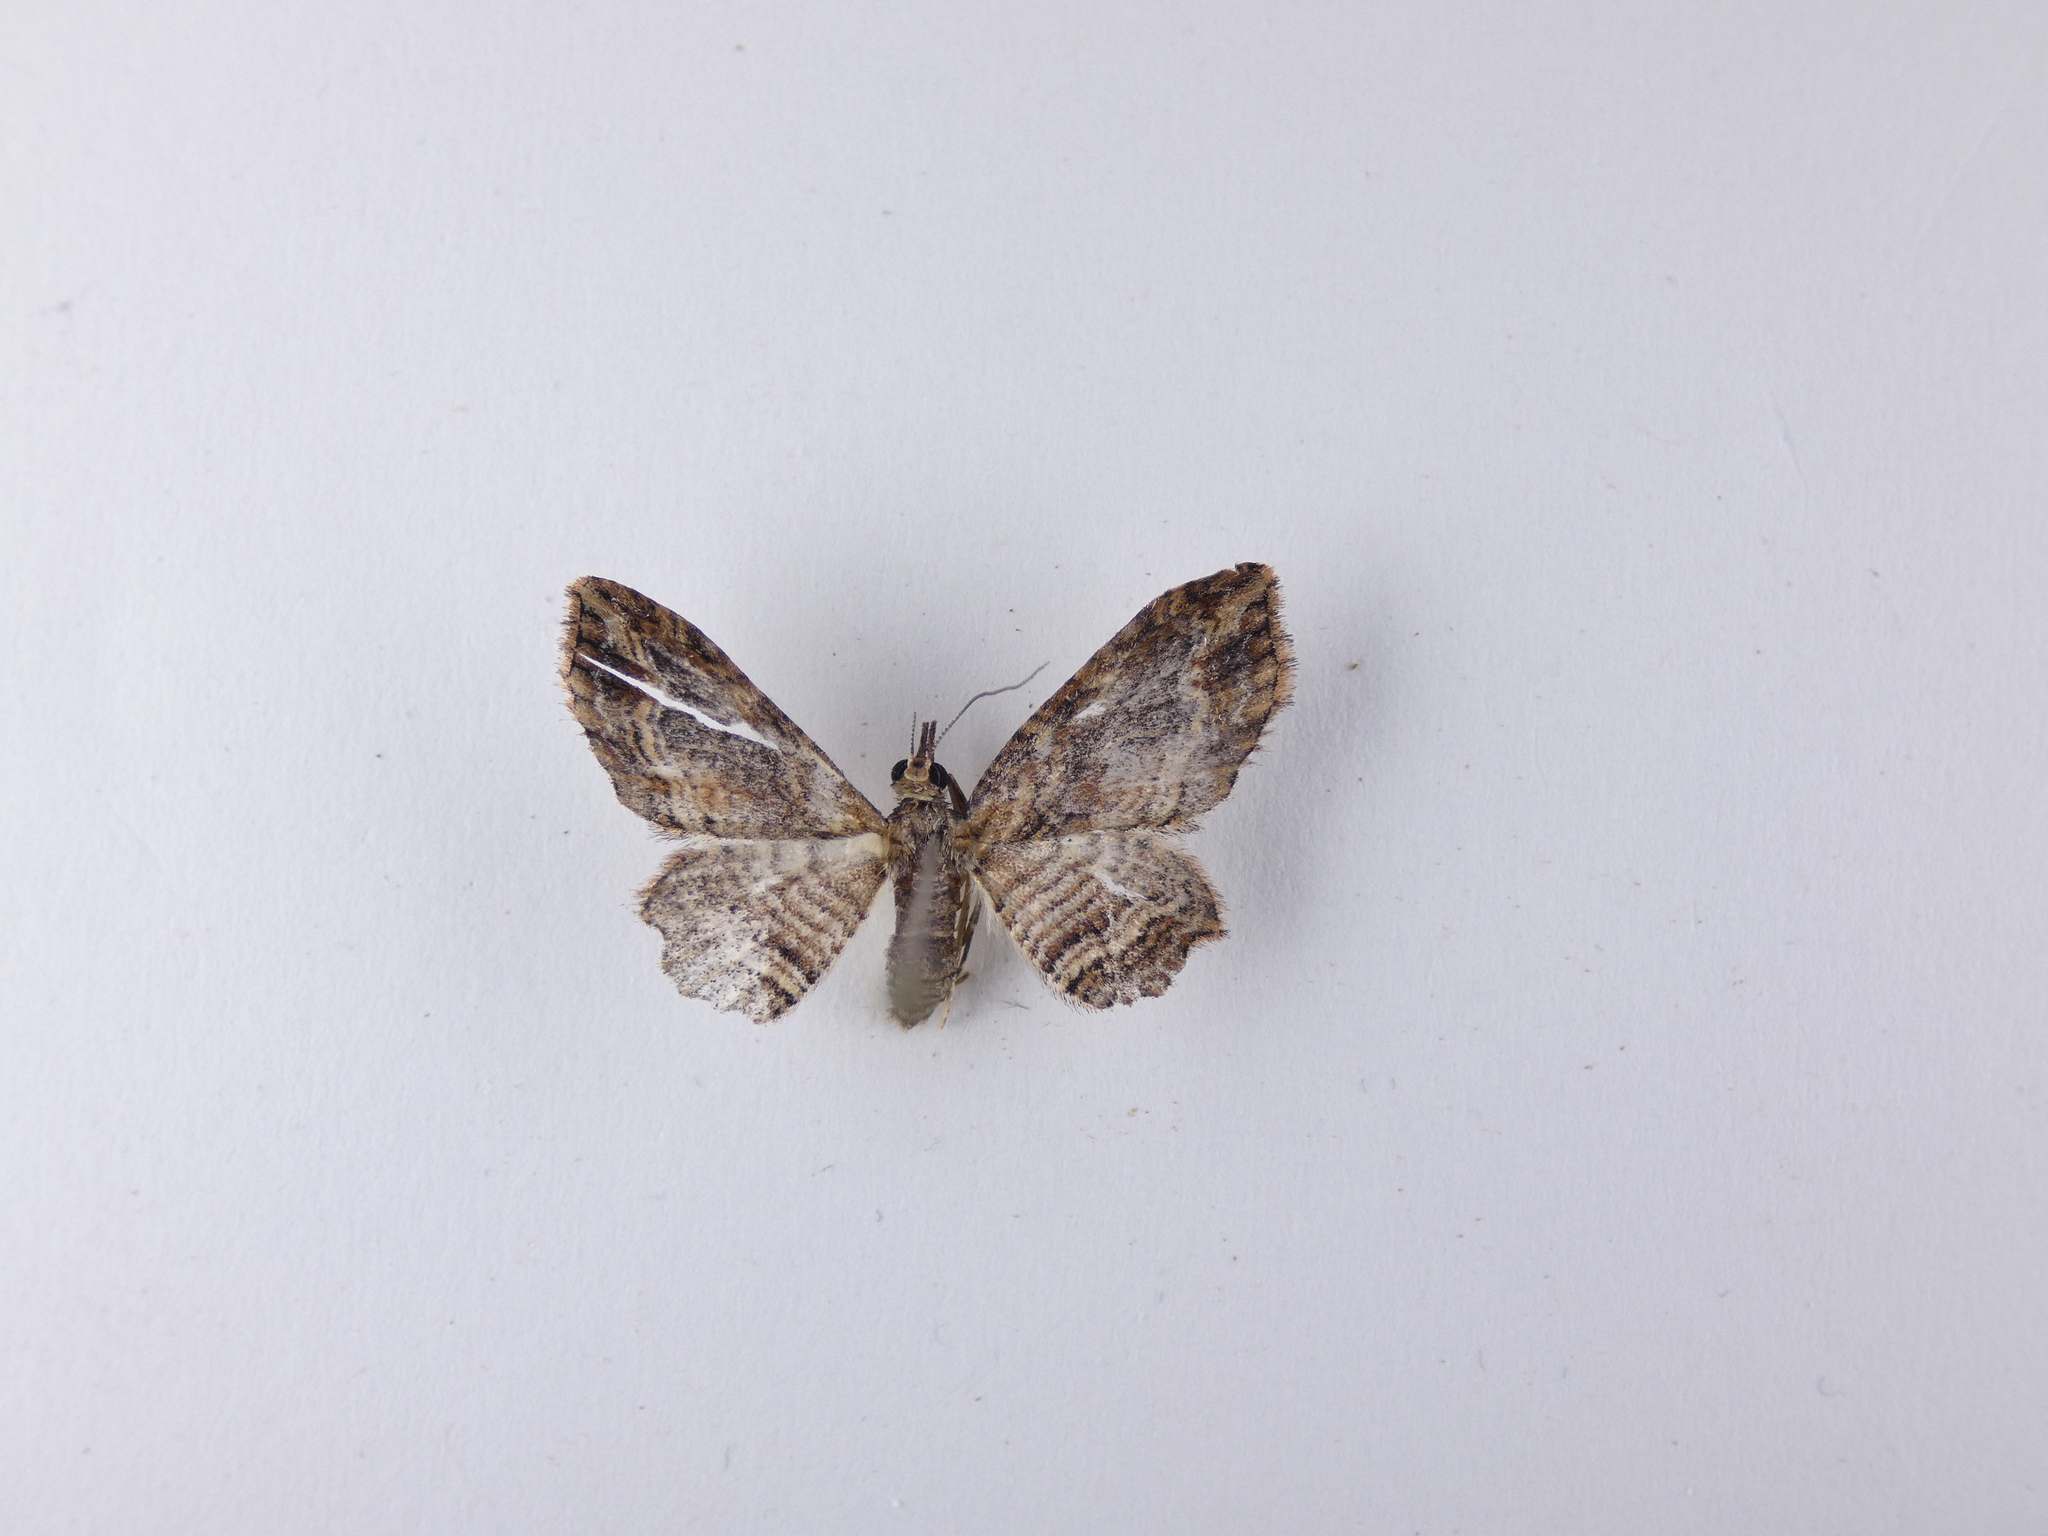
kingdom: Animalia
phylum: Arthropoda
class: Insecta
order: Lepidoptera
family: Geometridae
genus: Chloroclystis
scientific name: Chloroclystis filata
